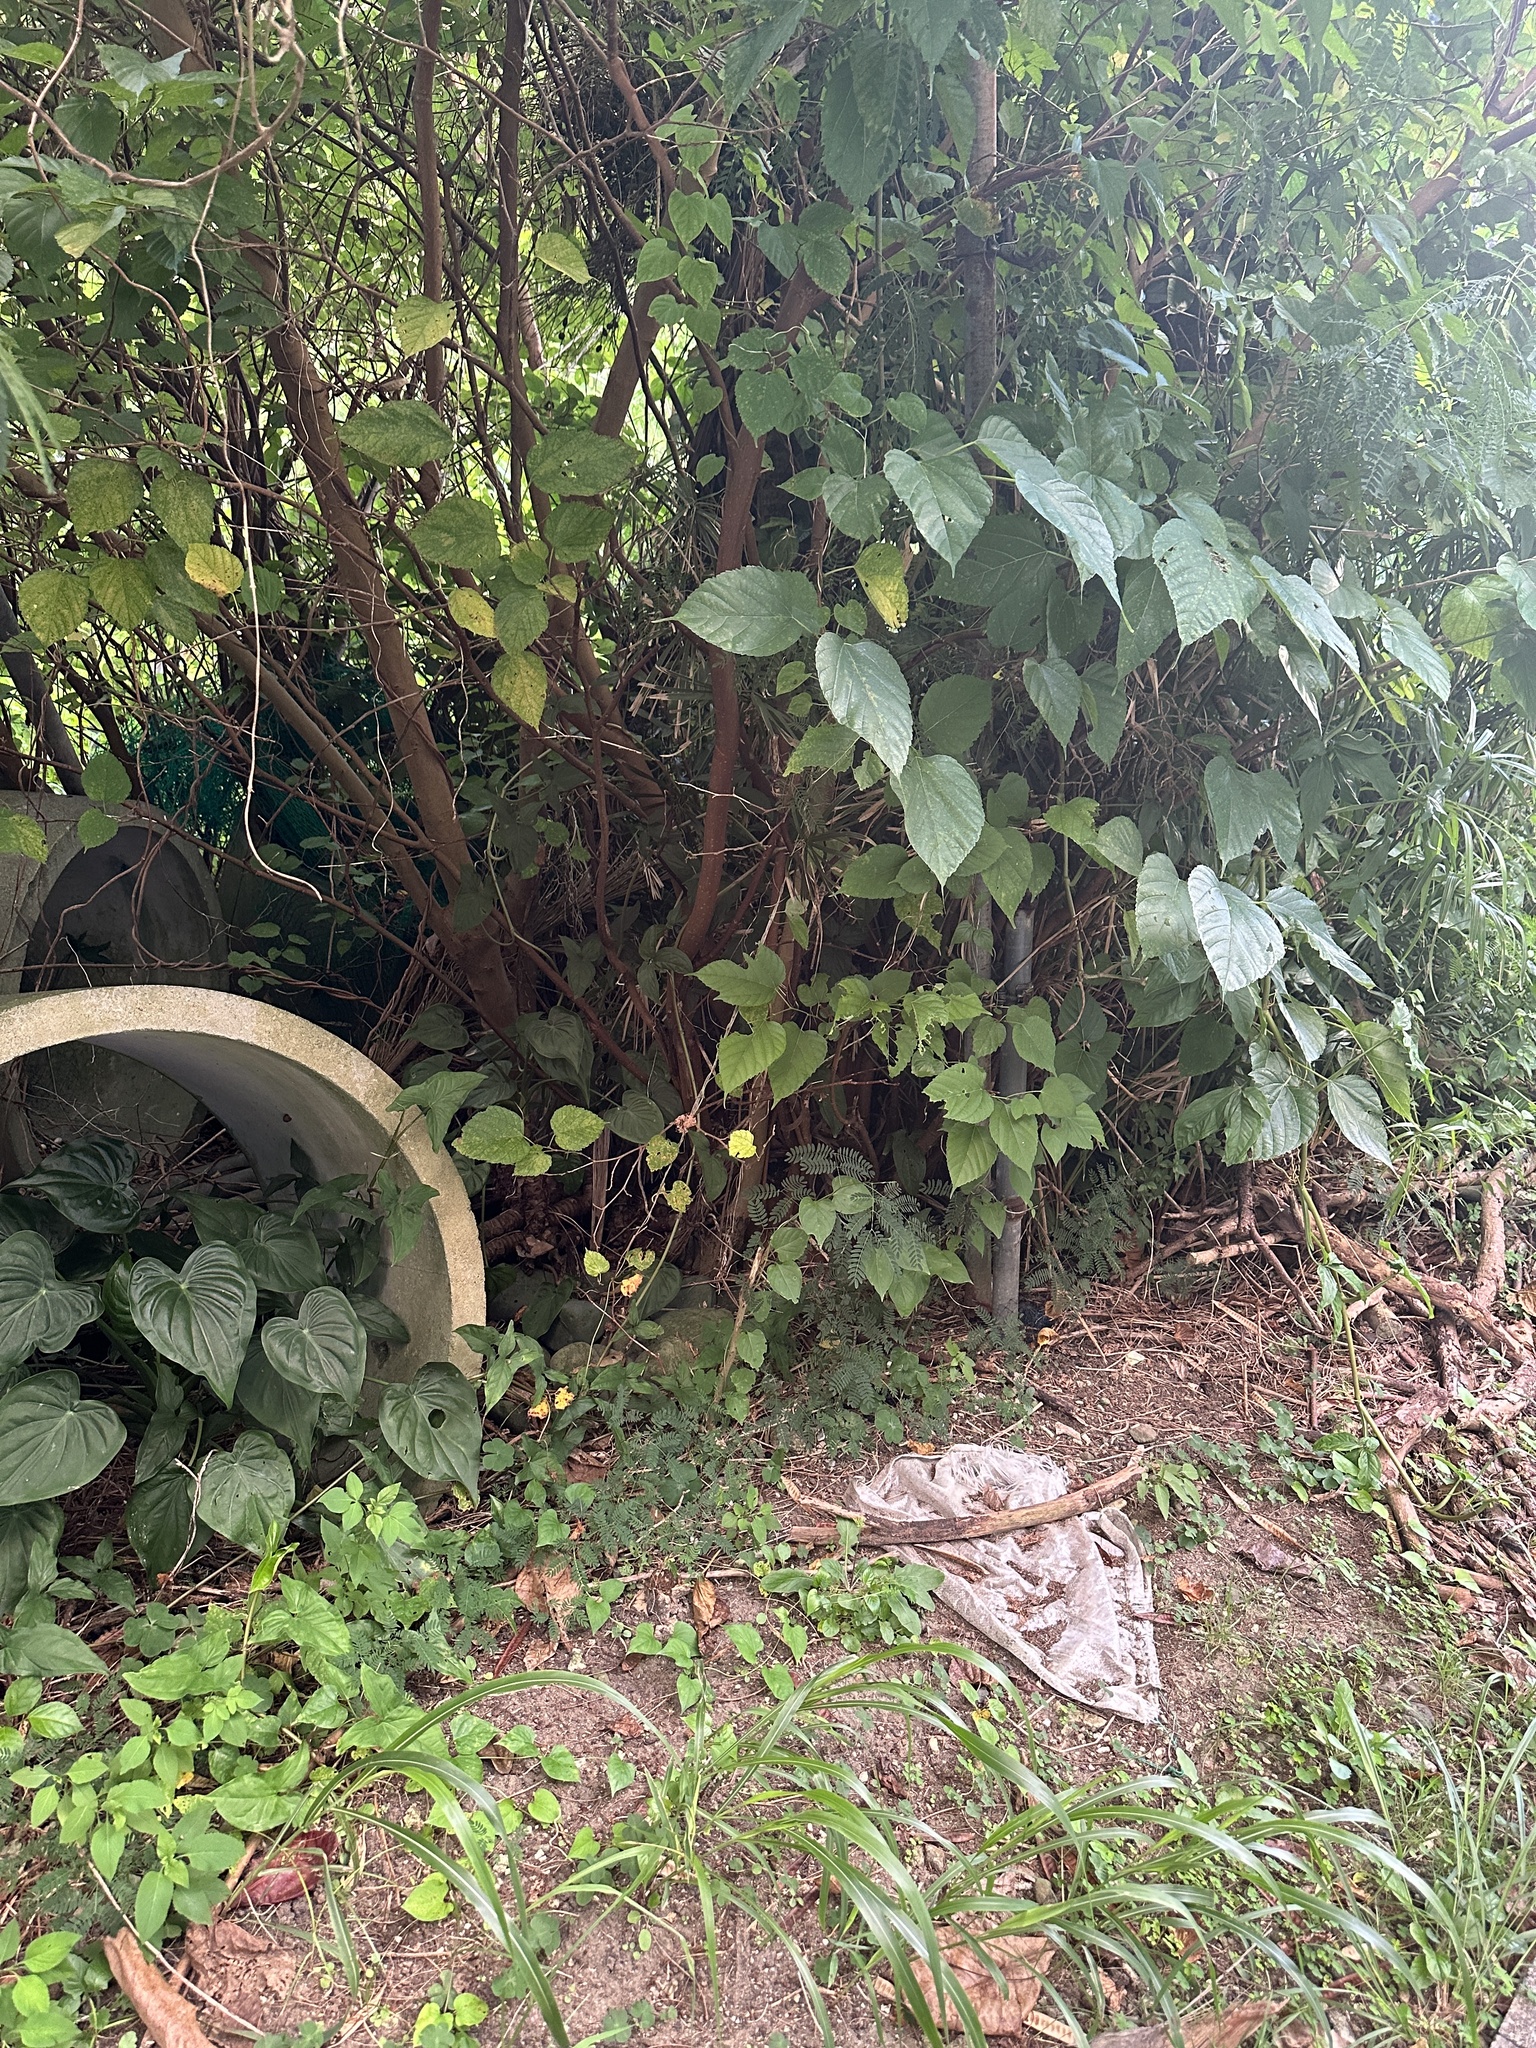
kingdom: Animalia
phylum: Arthropoda
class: Insecta
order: Orthoptera
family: Gryllidae
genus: Teleogryllus
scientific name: Teleogryllus boninensis
